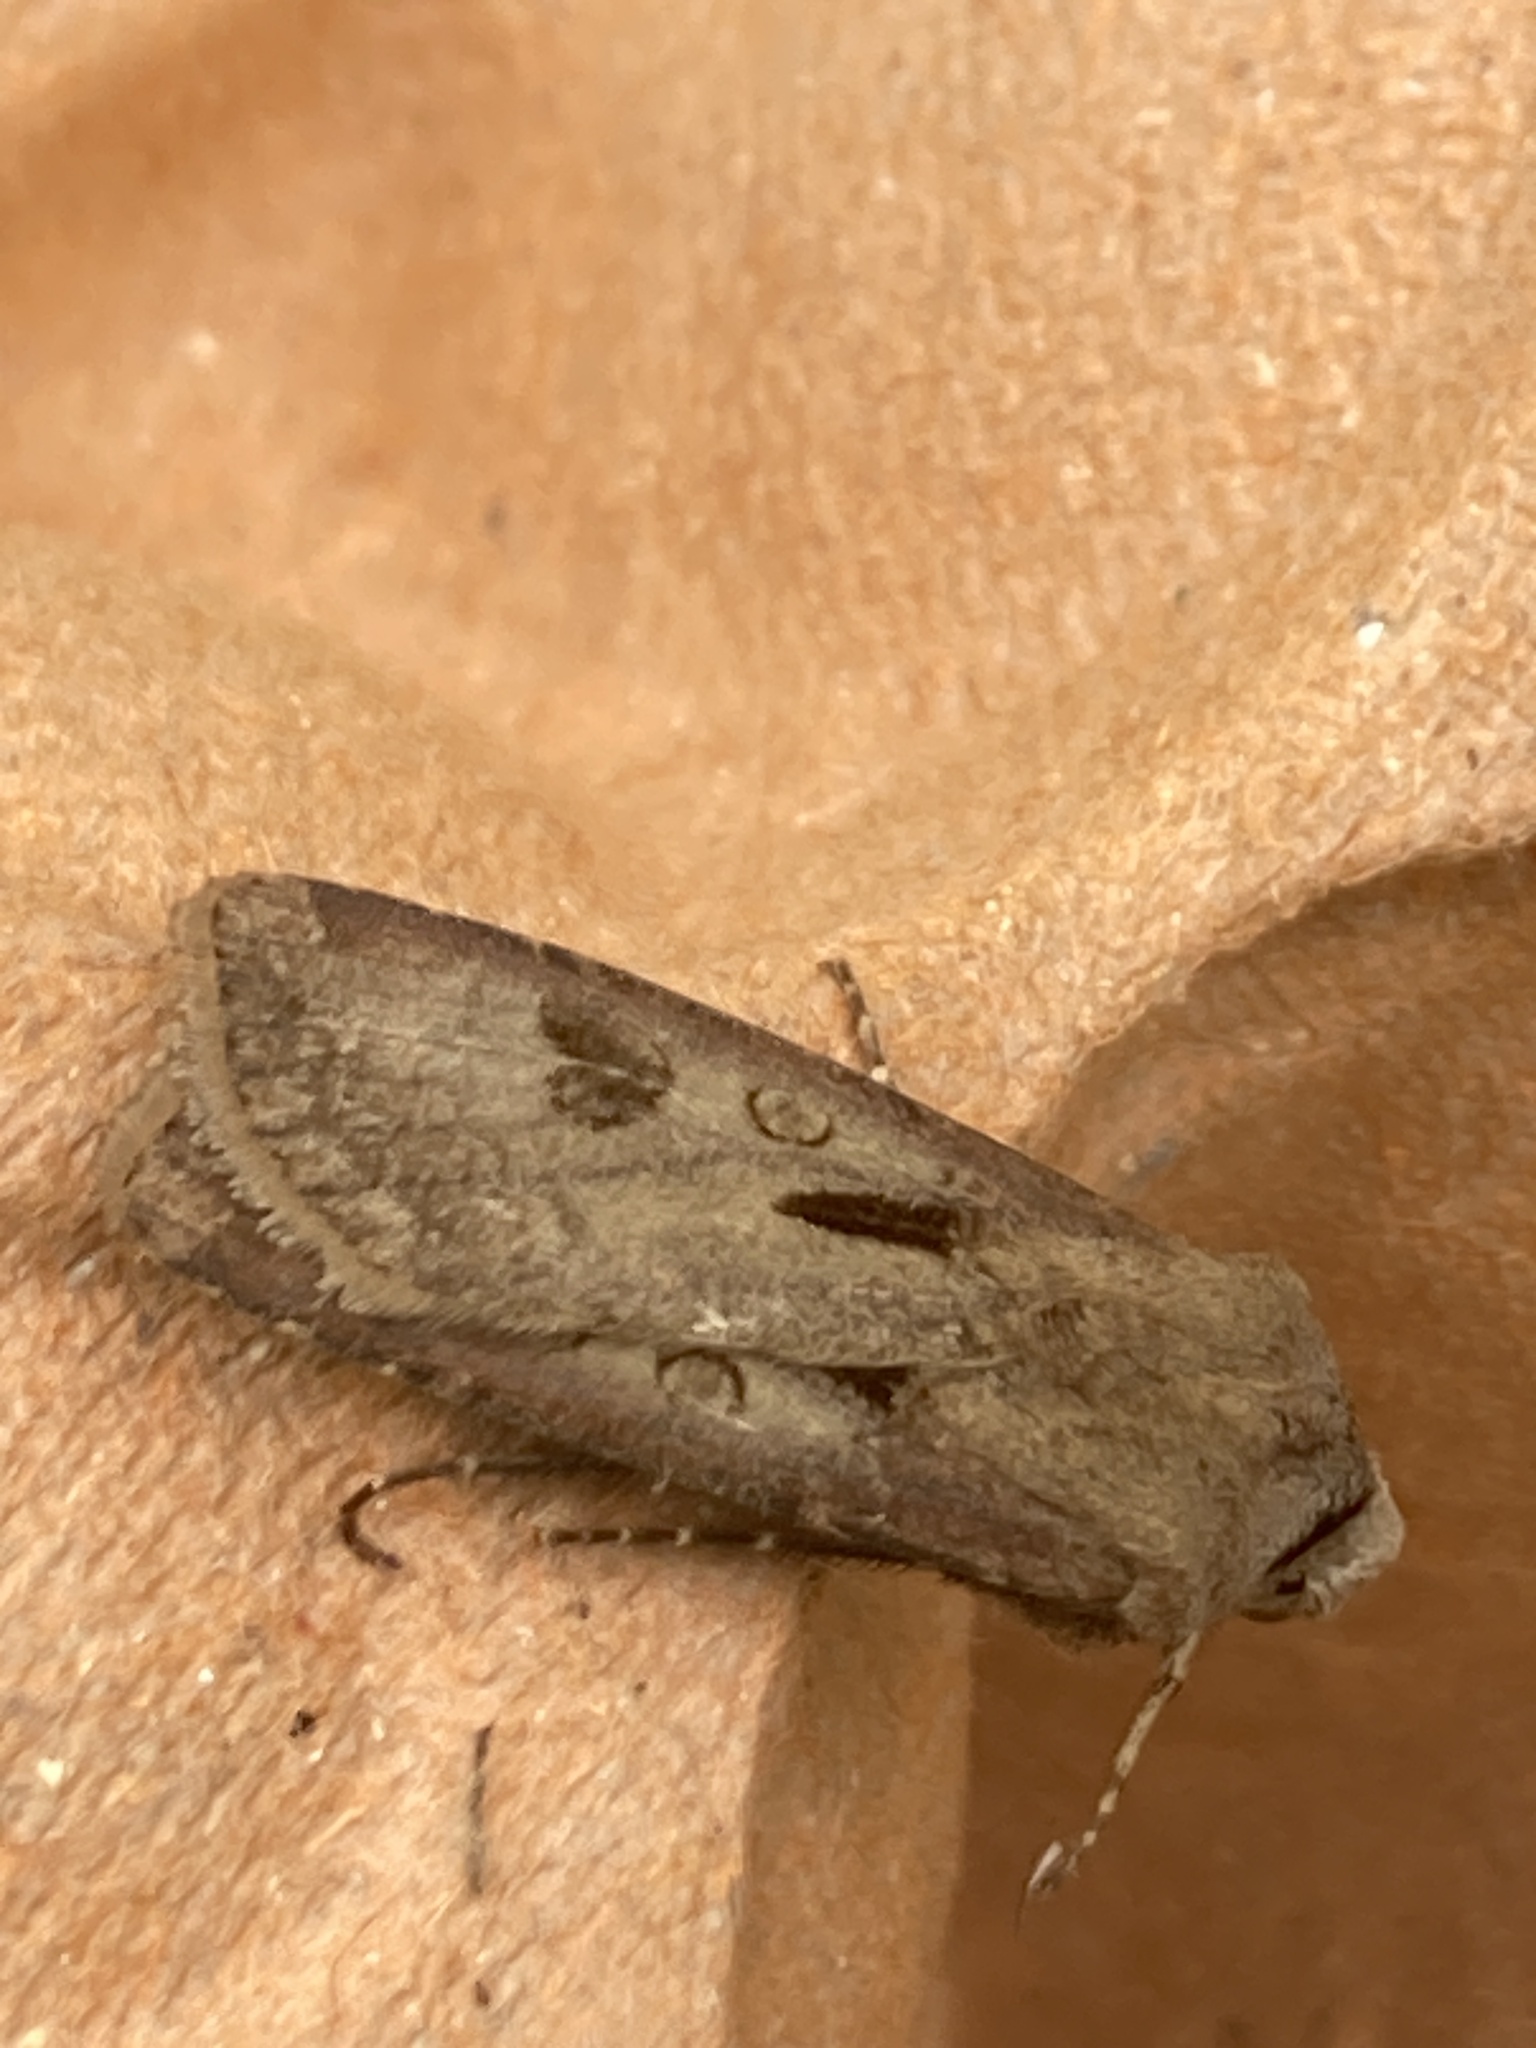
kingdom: Animalia
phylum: Arthropoda
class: Insecta
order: Lepidoptera
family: Noctuidae
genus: Agrotis
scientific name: Agrotis exclamationis
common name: Heart and dart
